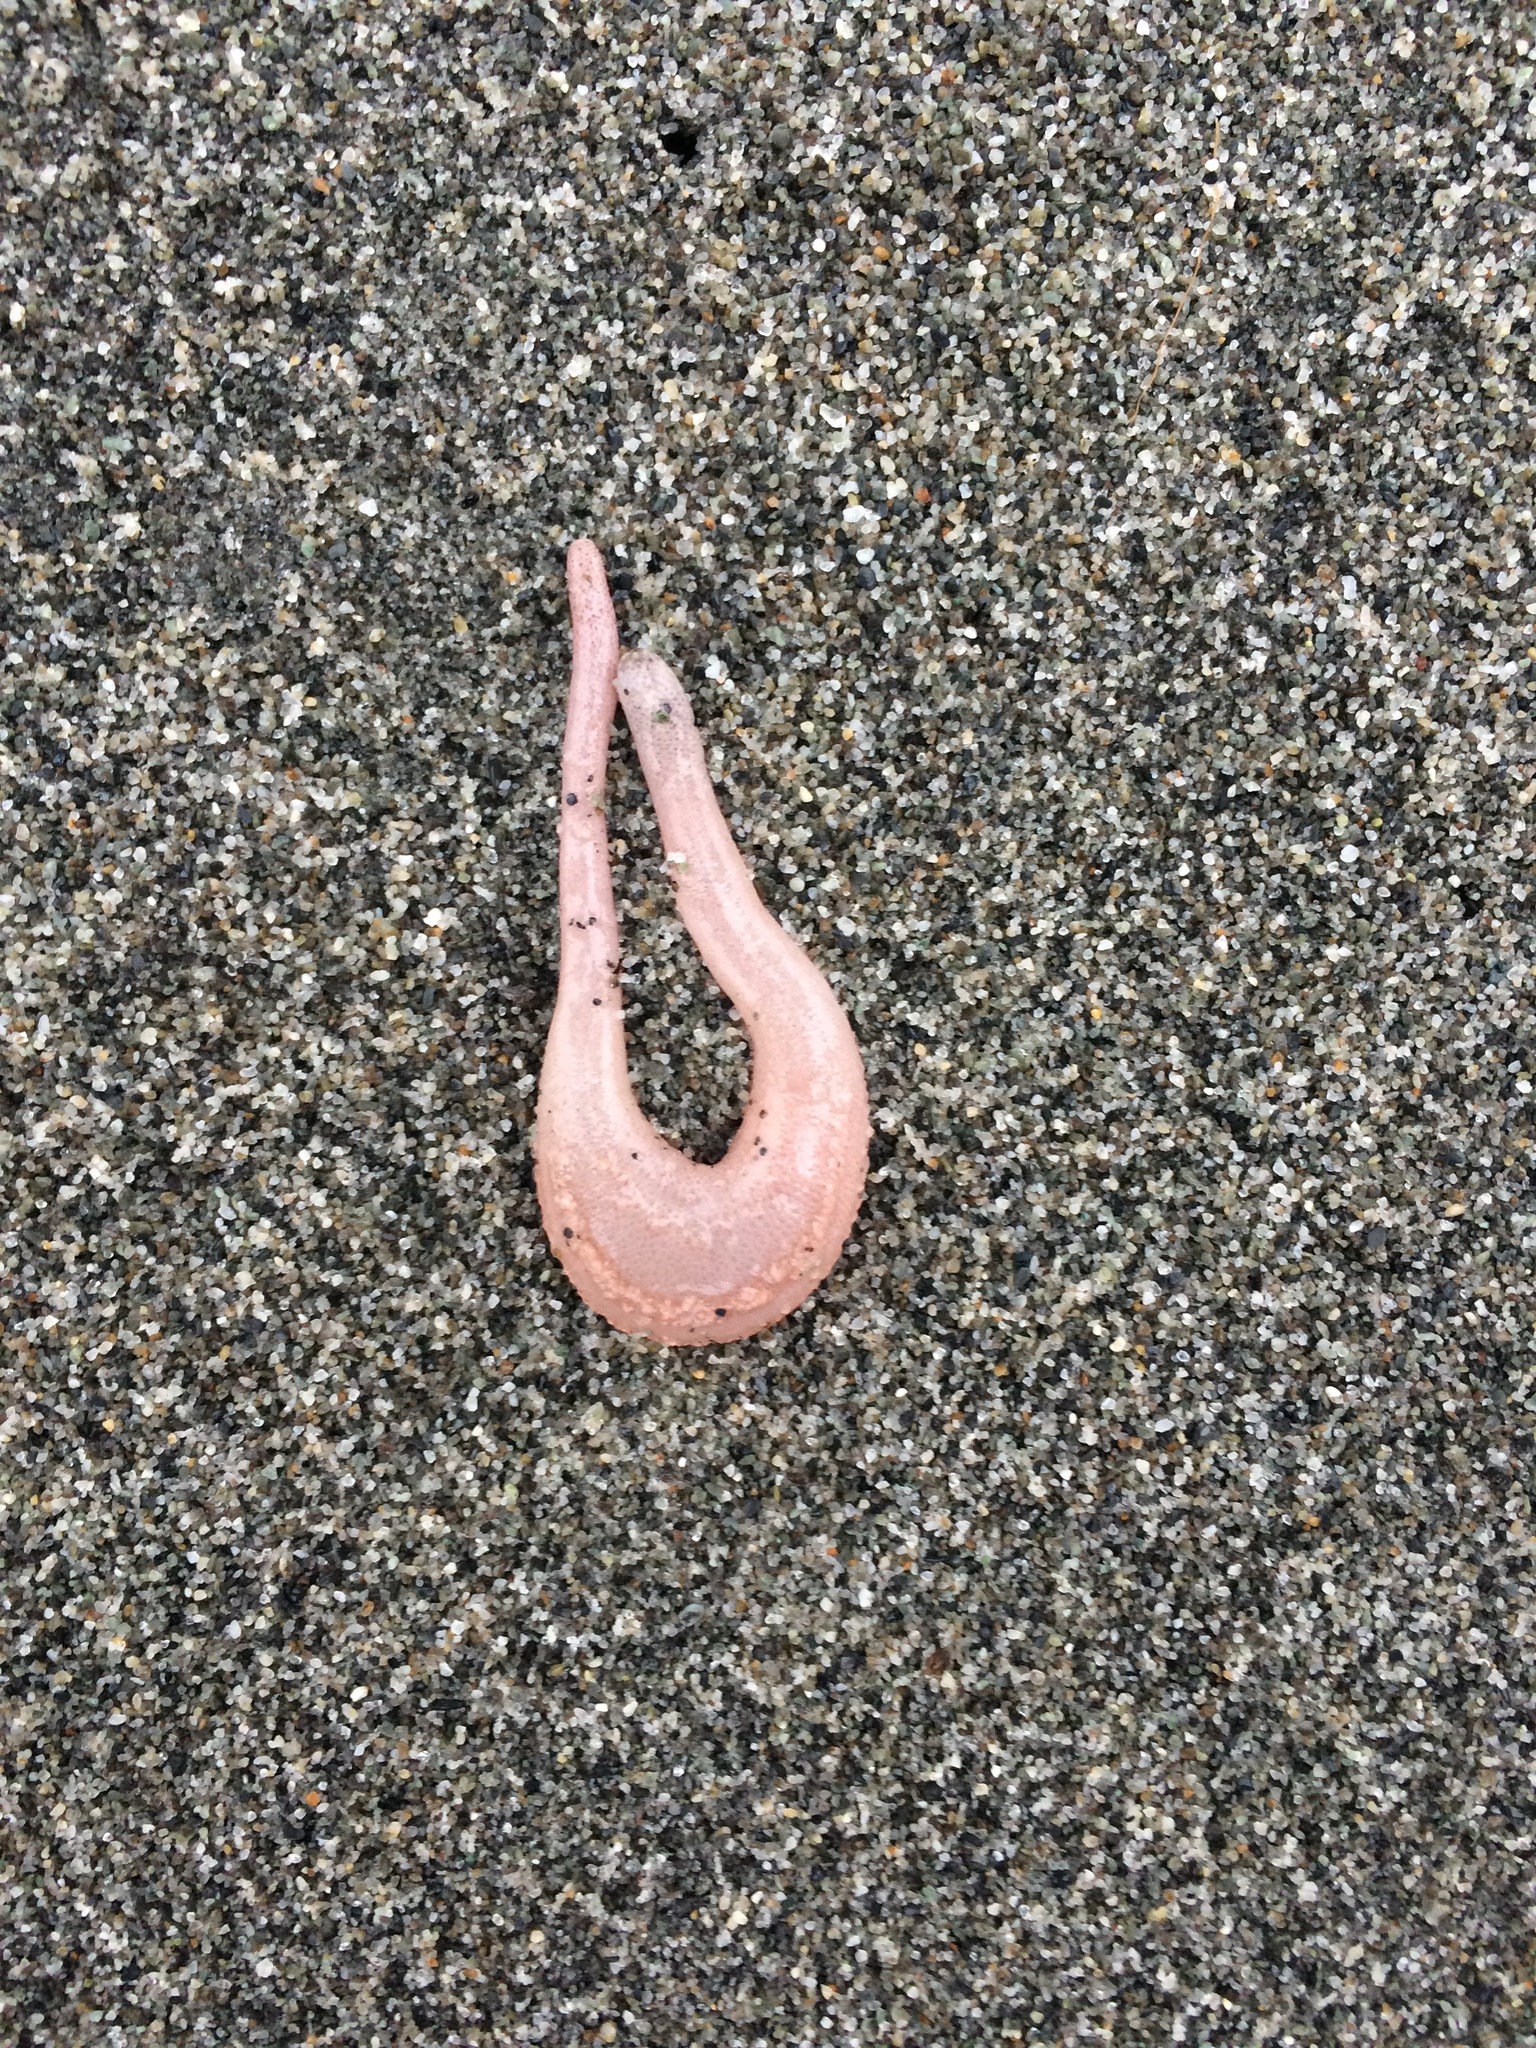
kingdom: Animalia
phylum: Echinodermata
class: Holothuroidea
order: Dendrochirotida
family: Heterothyonidae
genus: Heterothyone
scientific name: Heterothyone ocnoides
